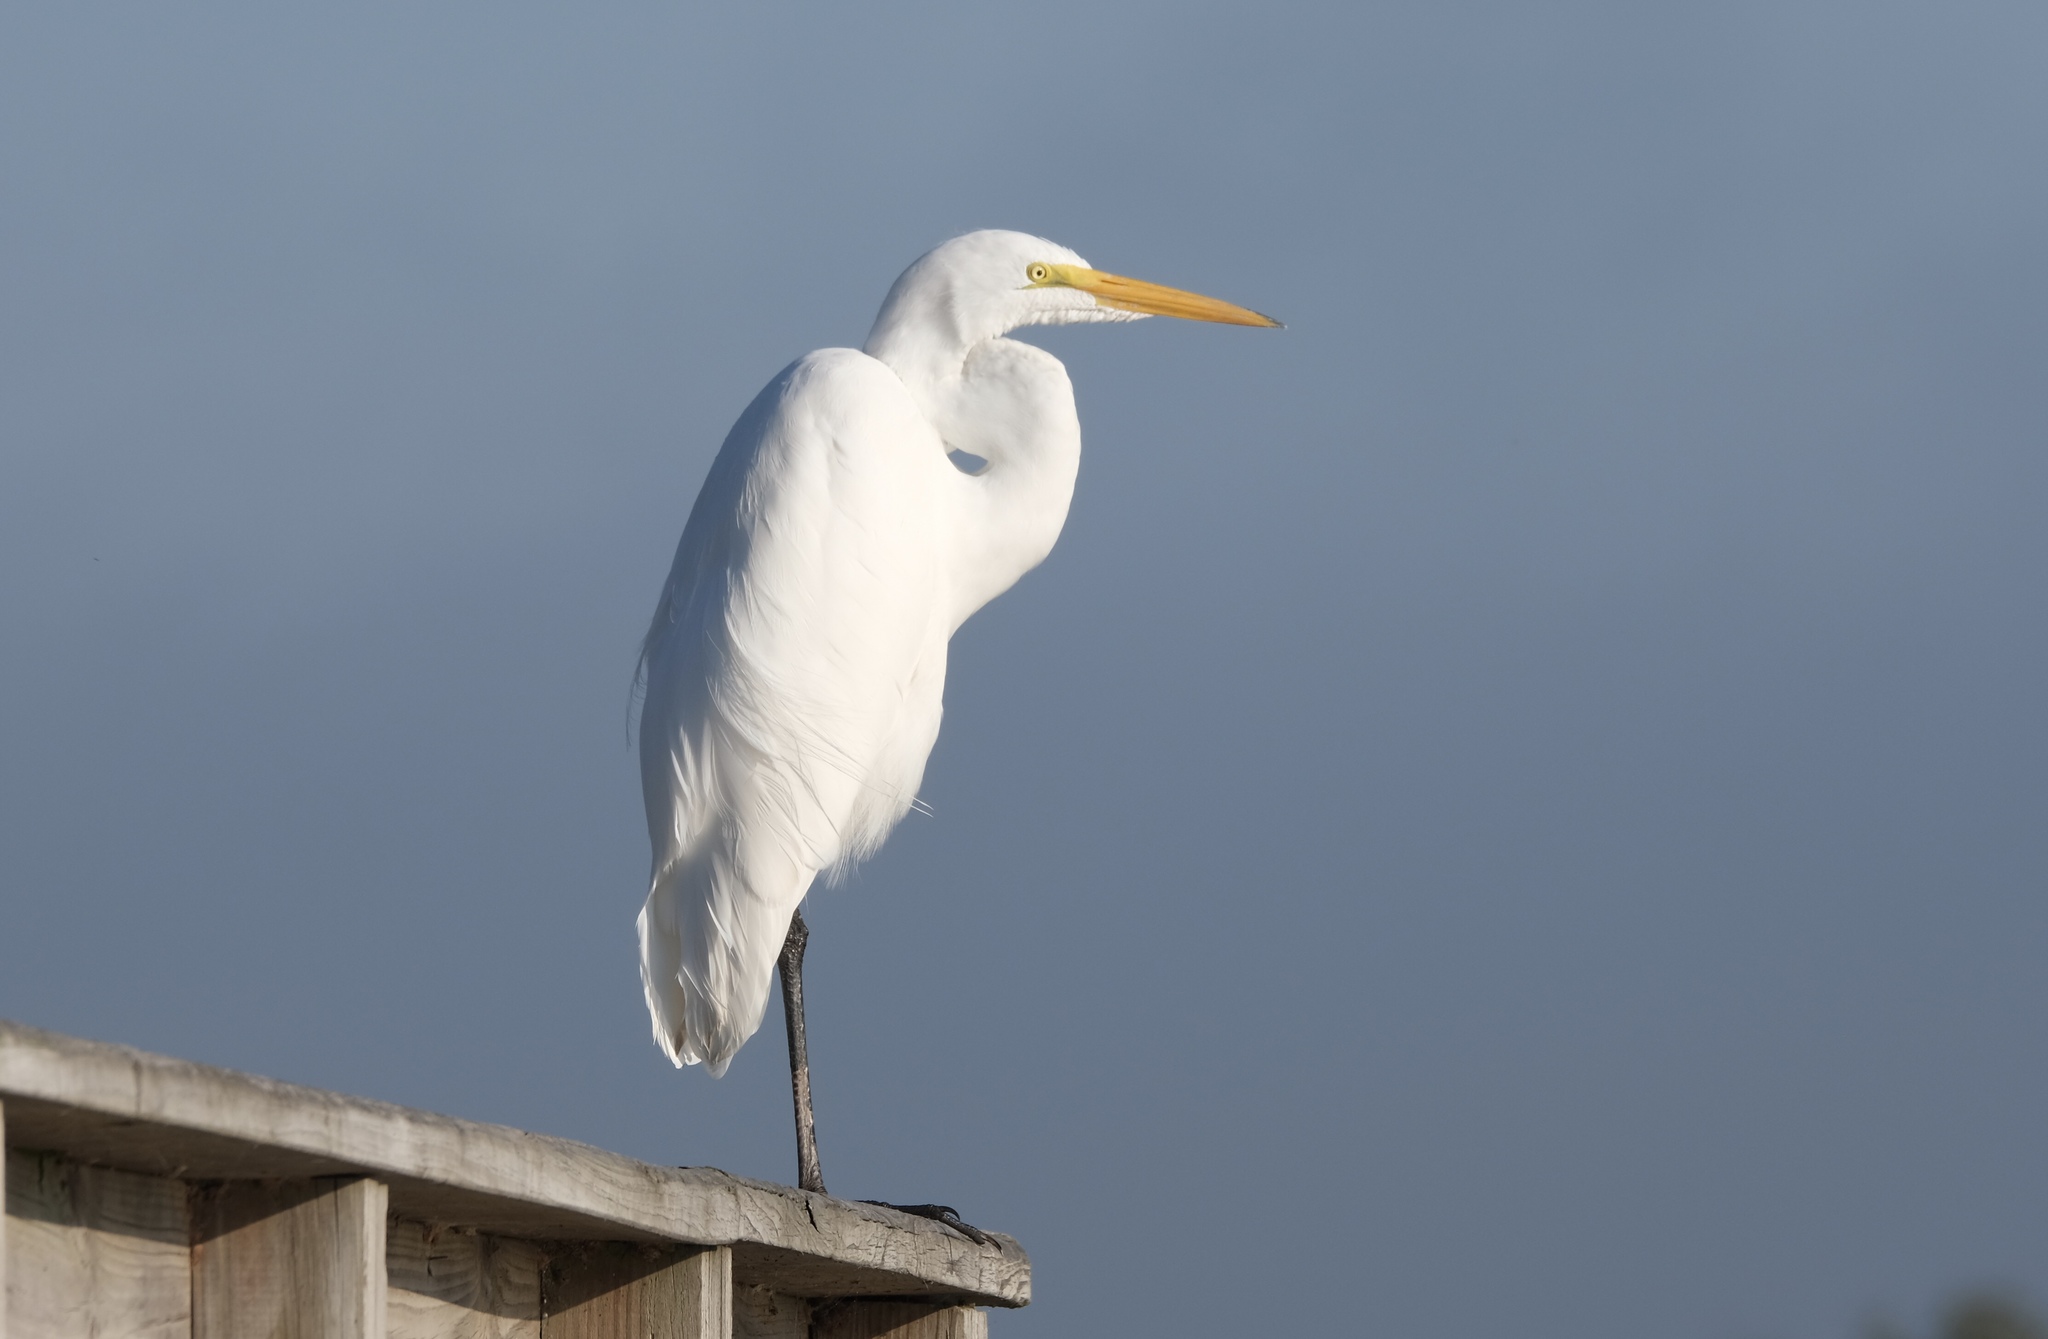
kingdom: Animalia
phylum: Chordata
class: Aves
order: Pelecaniformes
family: Ardeidae
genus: Ardea
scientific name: Ardea alba
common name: Great egret
